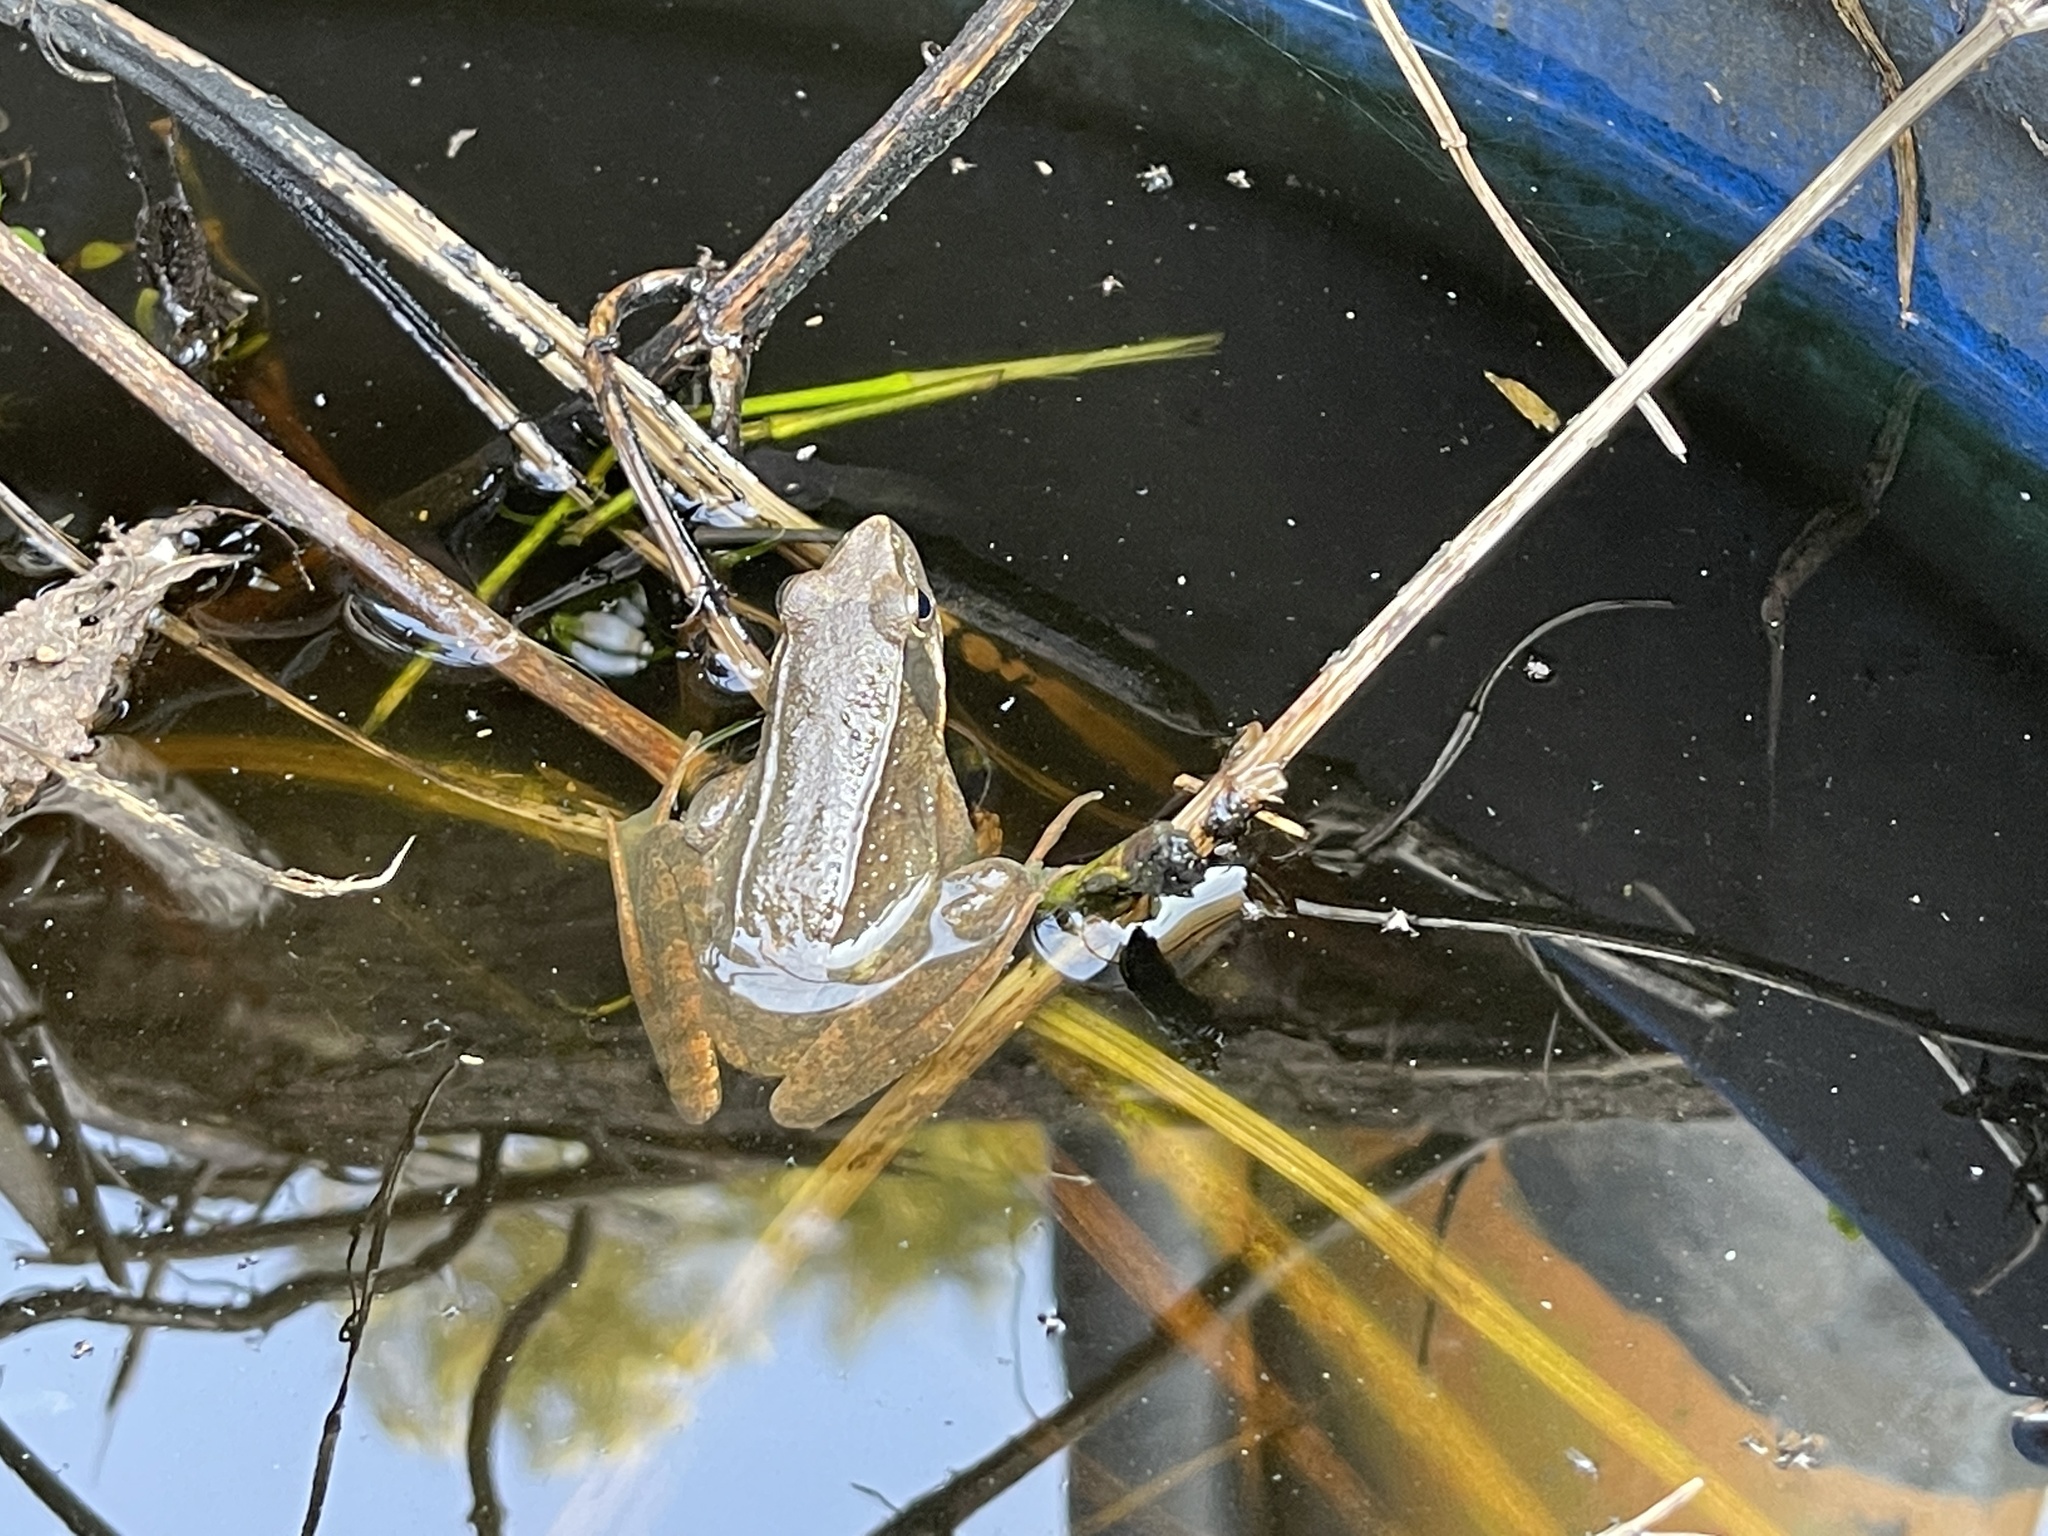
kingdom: Animalia
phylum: Chordata
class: Amphibia
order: Anura
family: Ranidae
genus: Rana
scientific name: Rana longicrus
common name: Long-legged brown frog
